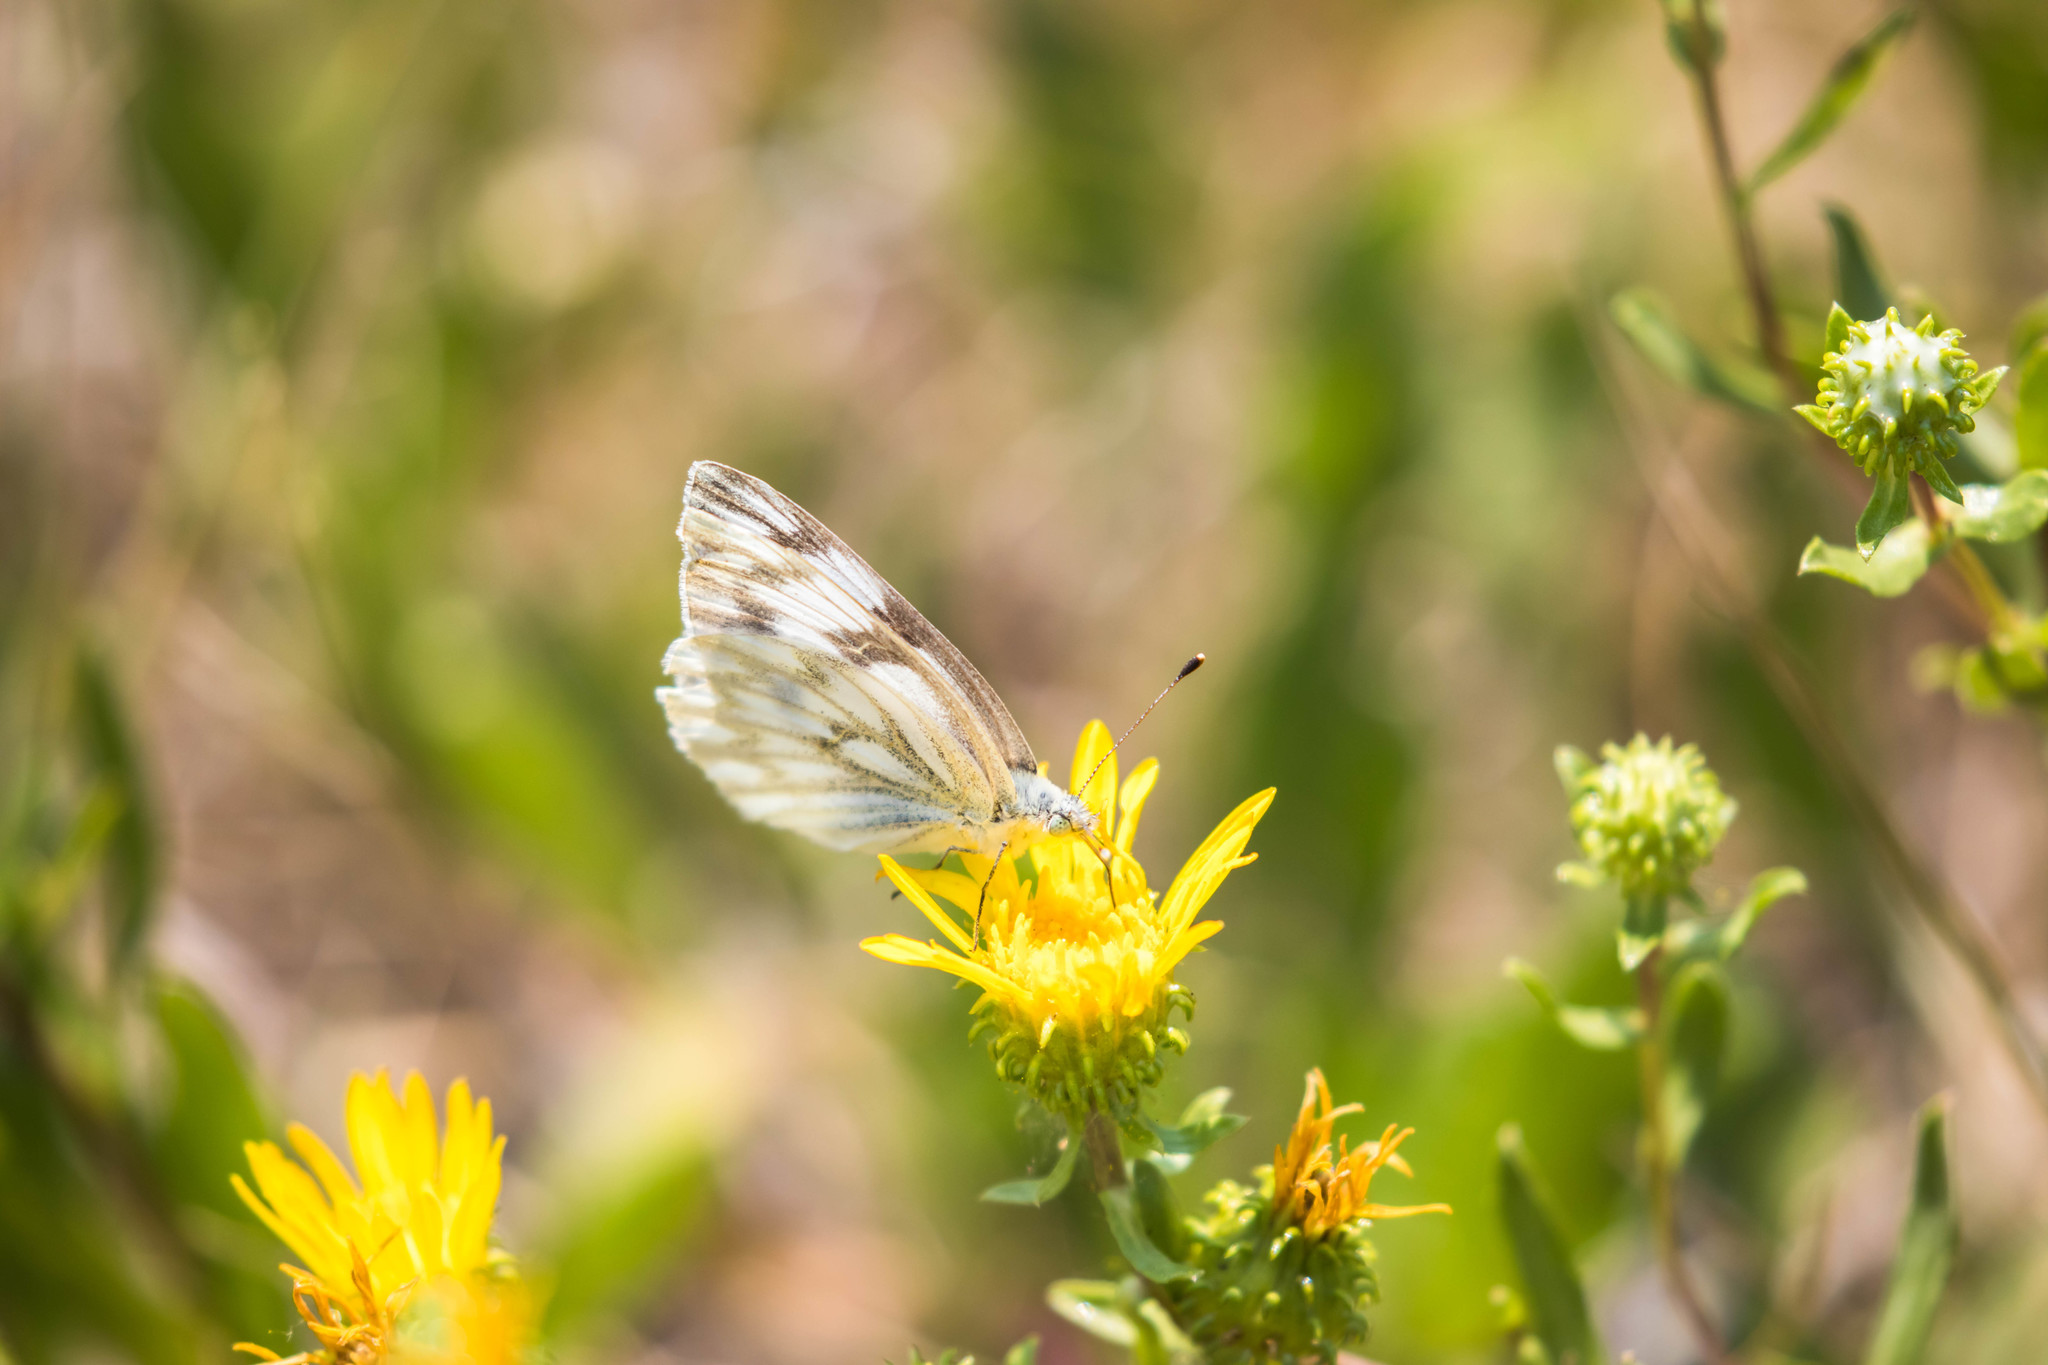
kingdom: Animalia
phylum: Arthropoda
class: Insecta
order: Lepidoptera
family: Pieridae
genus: Pontia
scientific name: Pontia occidentalis
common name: Western white
